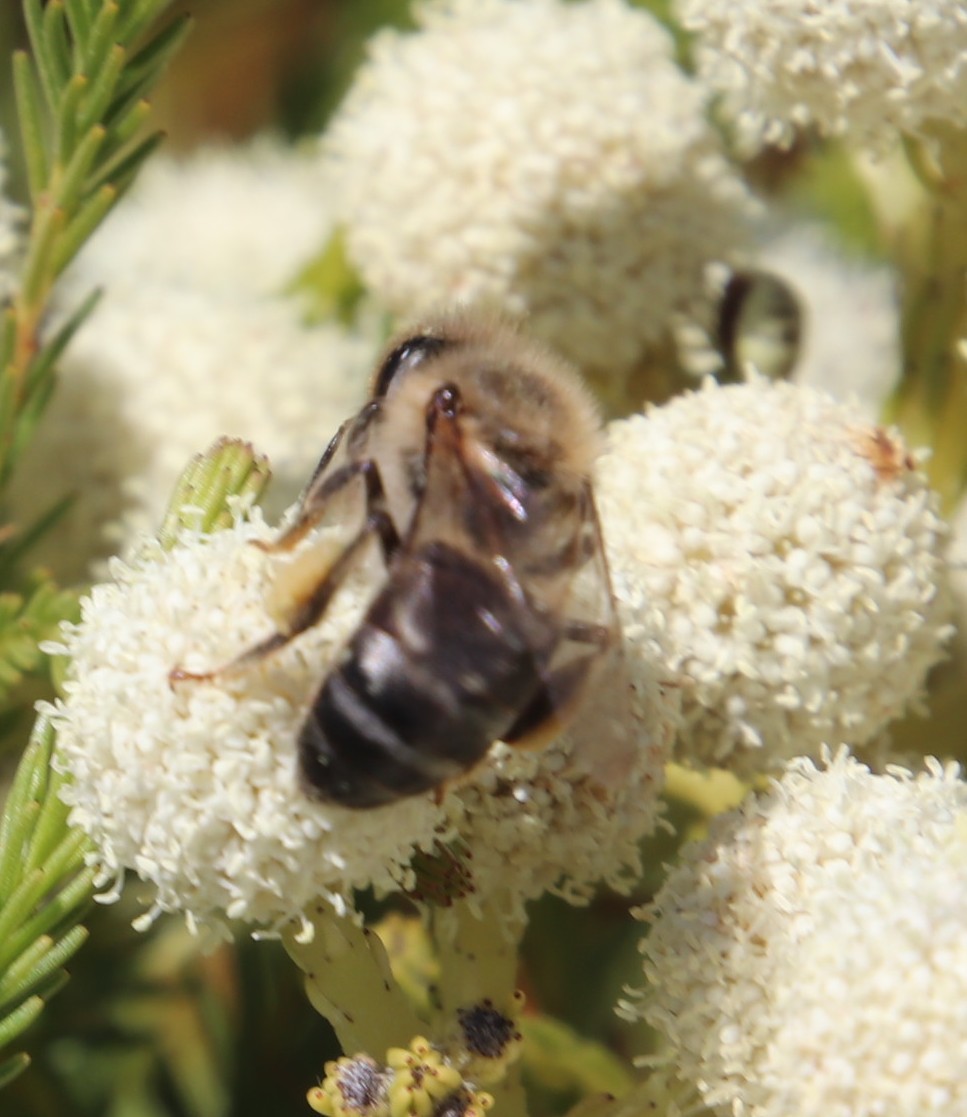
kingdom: Animalia
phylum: Arthropoda
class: Insecta
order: Hymenoptera
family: Apidae
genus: Apis
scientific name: Apis mellifera
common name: Honey bee
